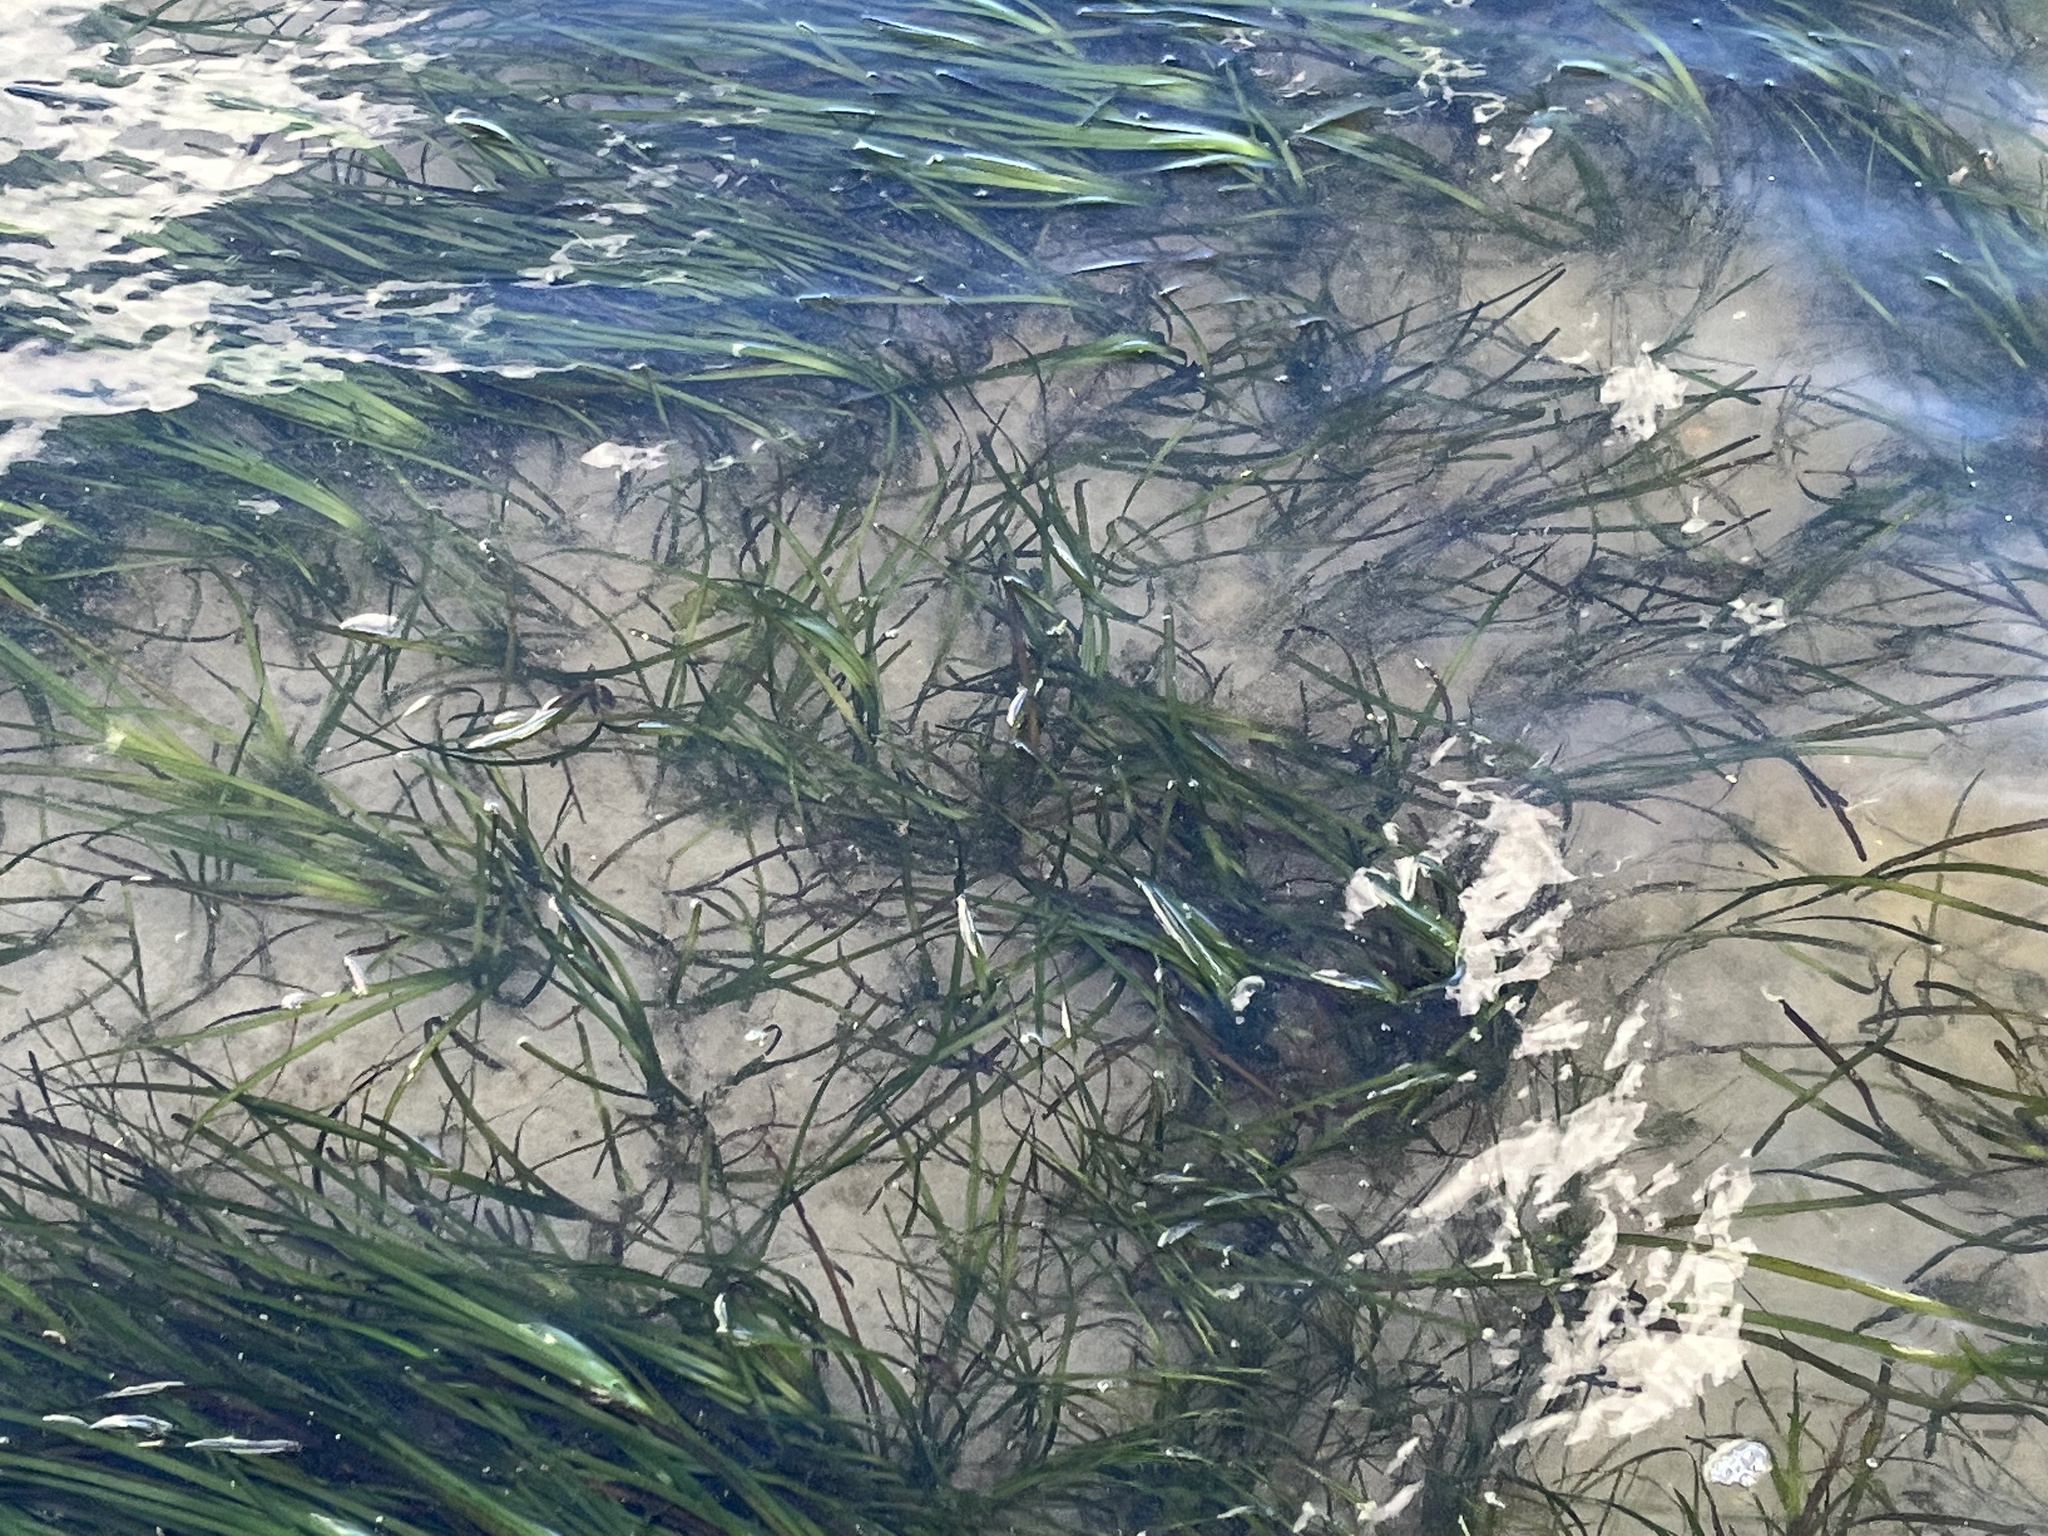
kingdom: Plantae
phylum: Tracheophyta
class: Liliopsida
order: Alismatales
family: Zosteraceae
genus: Zostera
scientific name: Zostera marina
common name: Eelgrass
